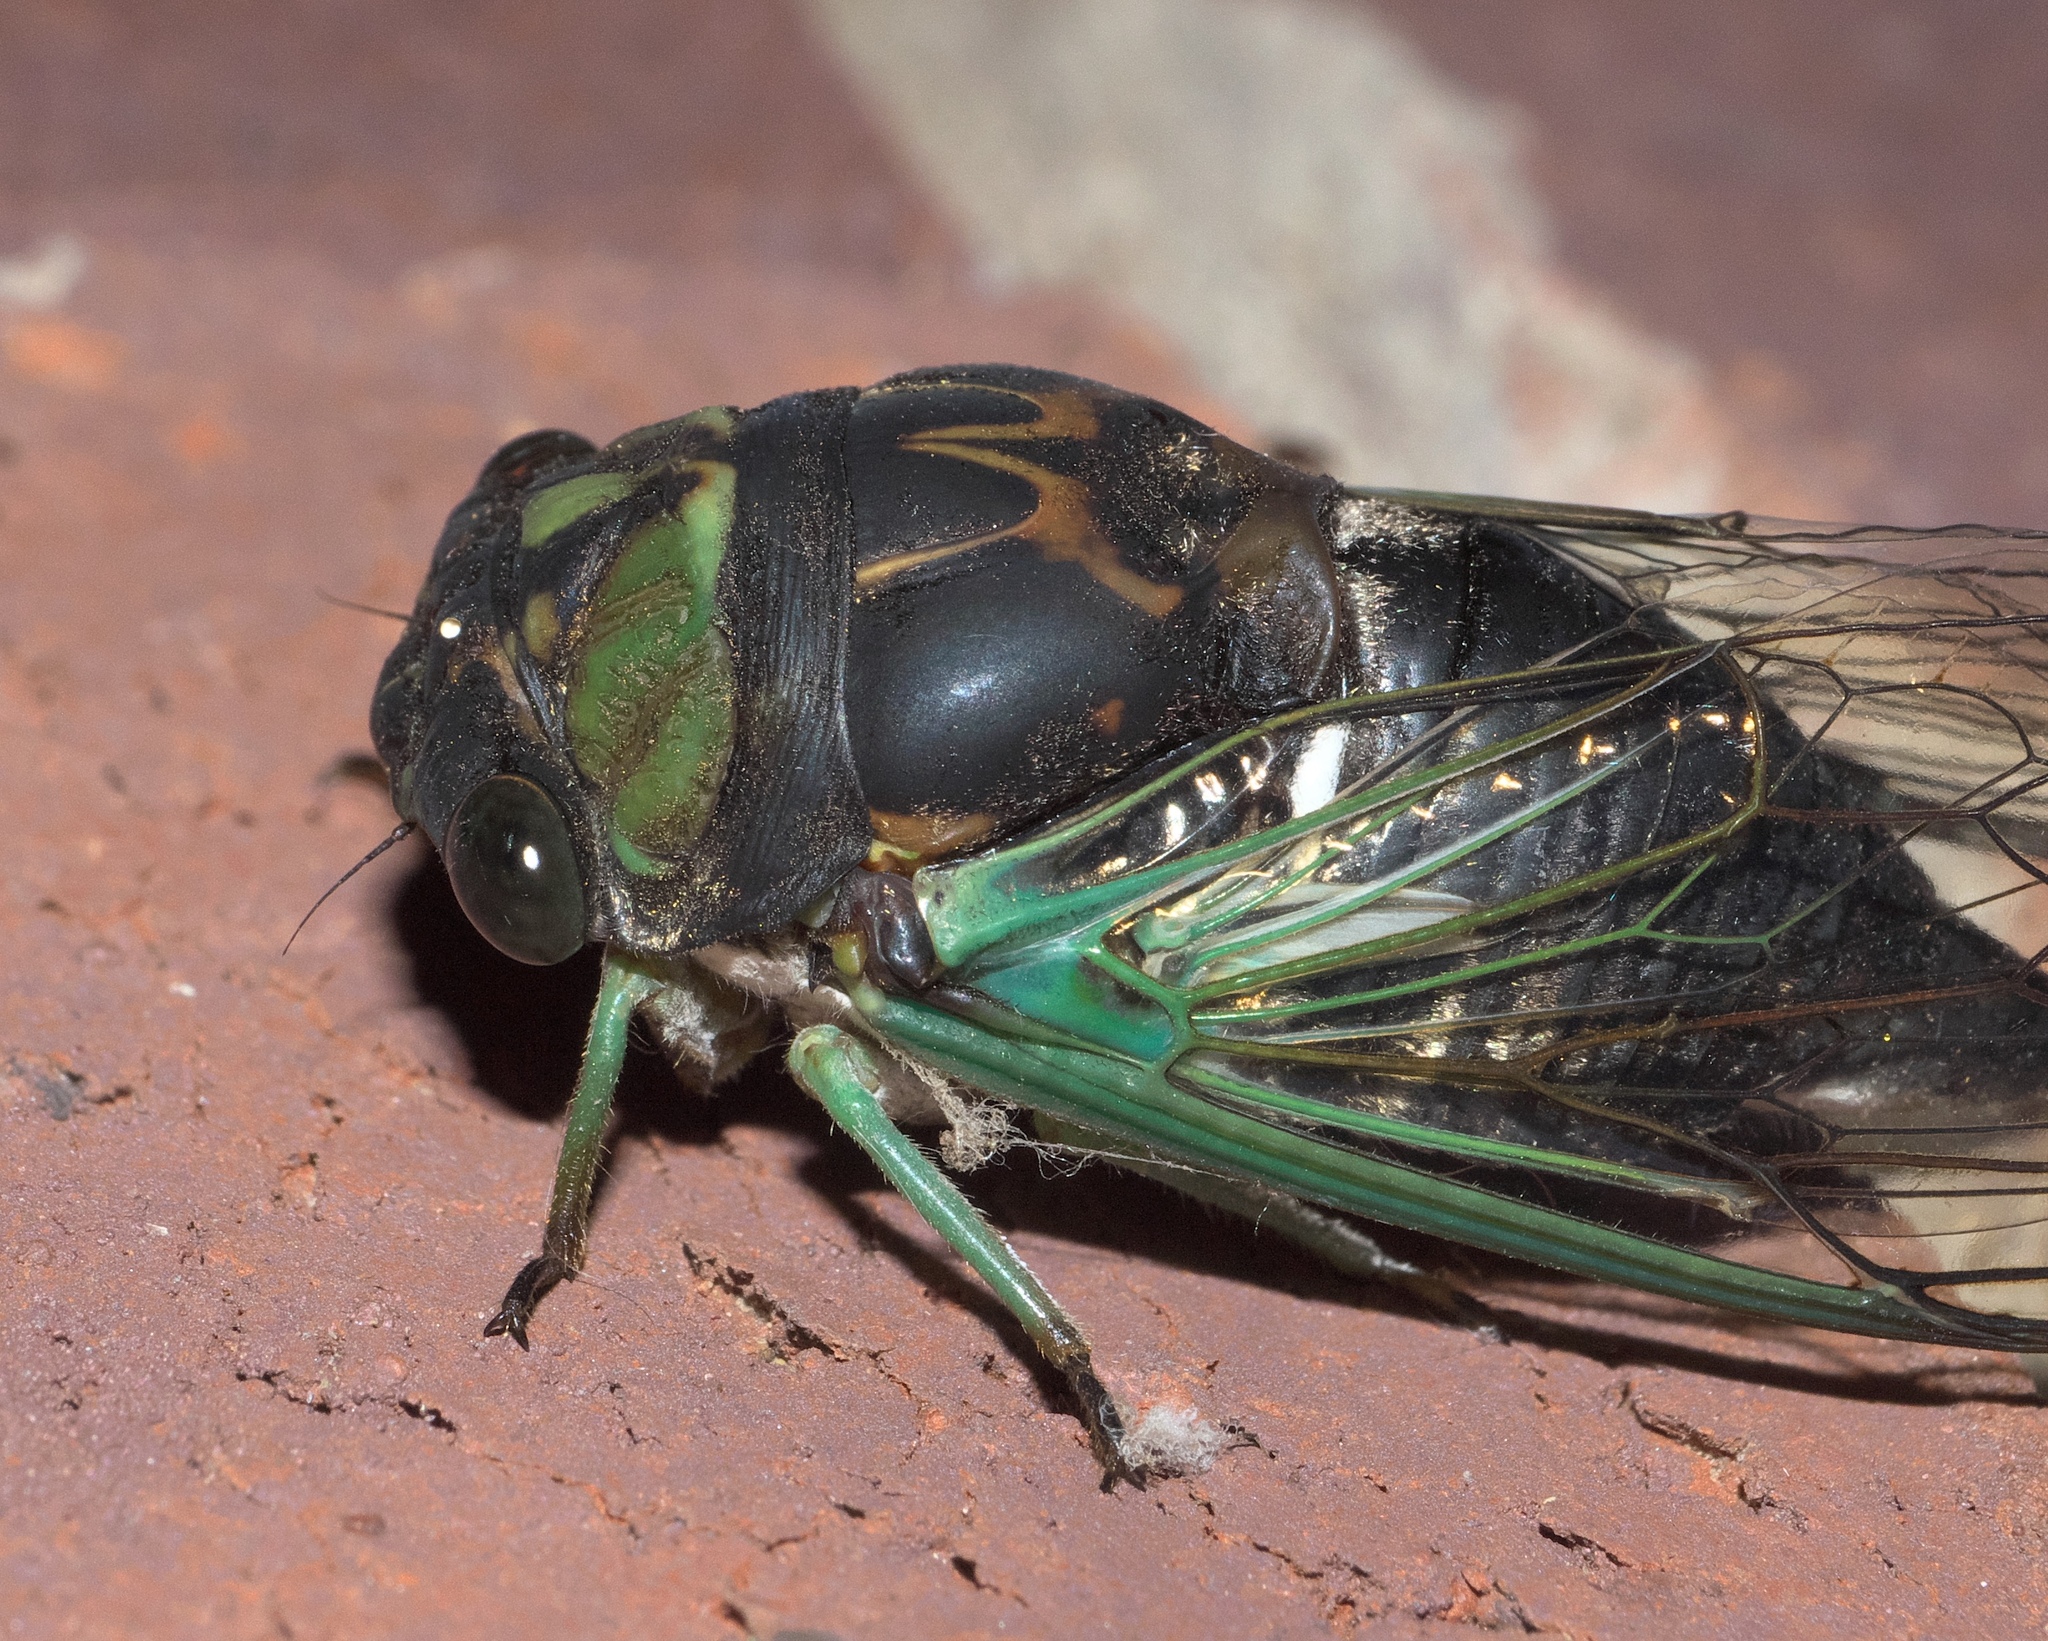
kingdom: Animalia
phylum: Arthropoda
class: Insecta
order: Hemiptera
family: Cicadidae
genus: Neotibicen
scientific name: Neotibicen tibicen
